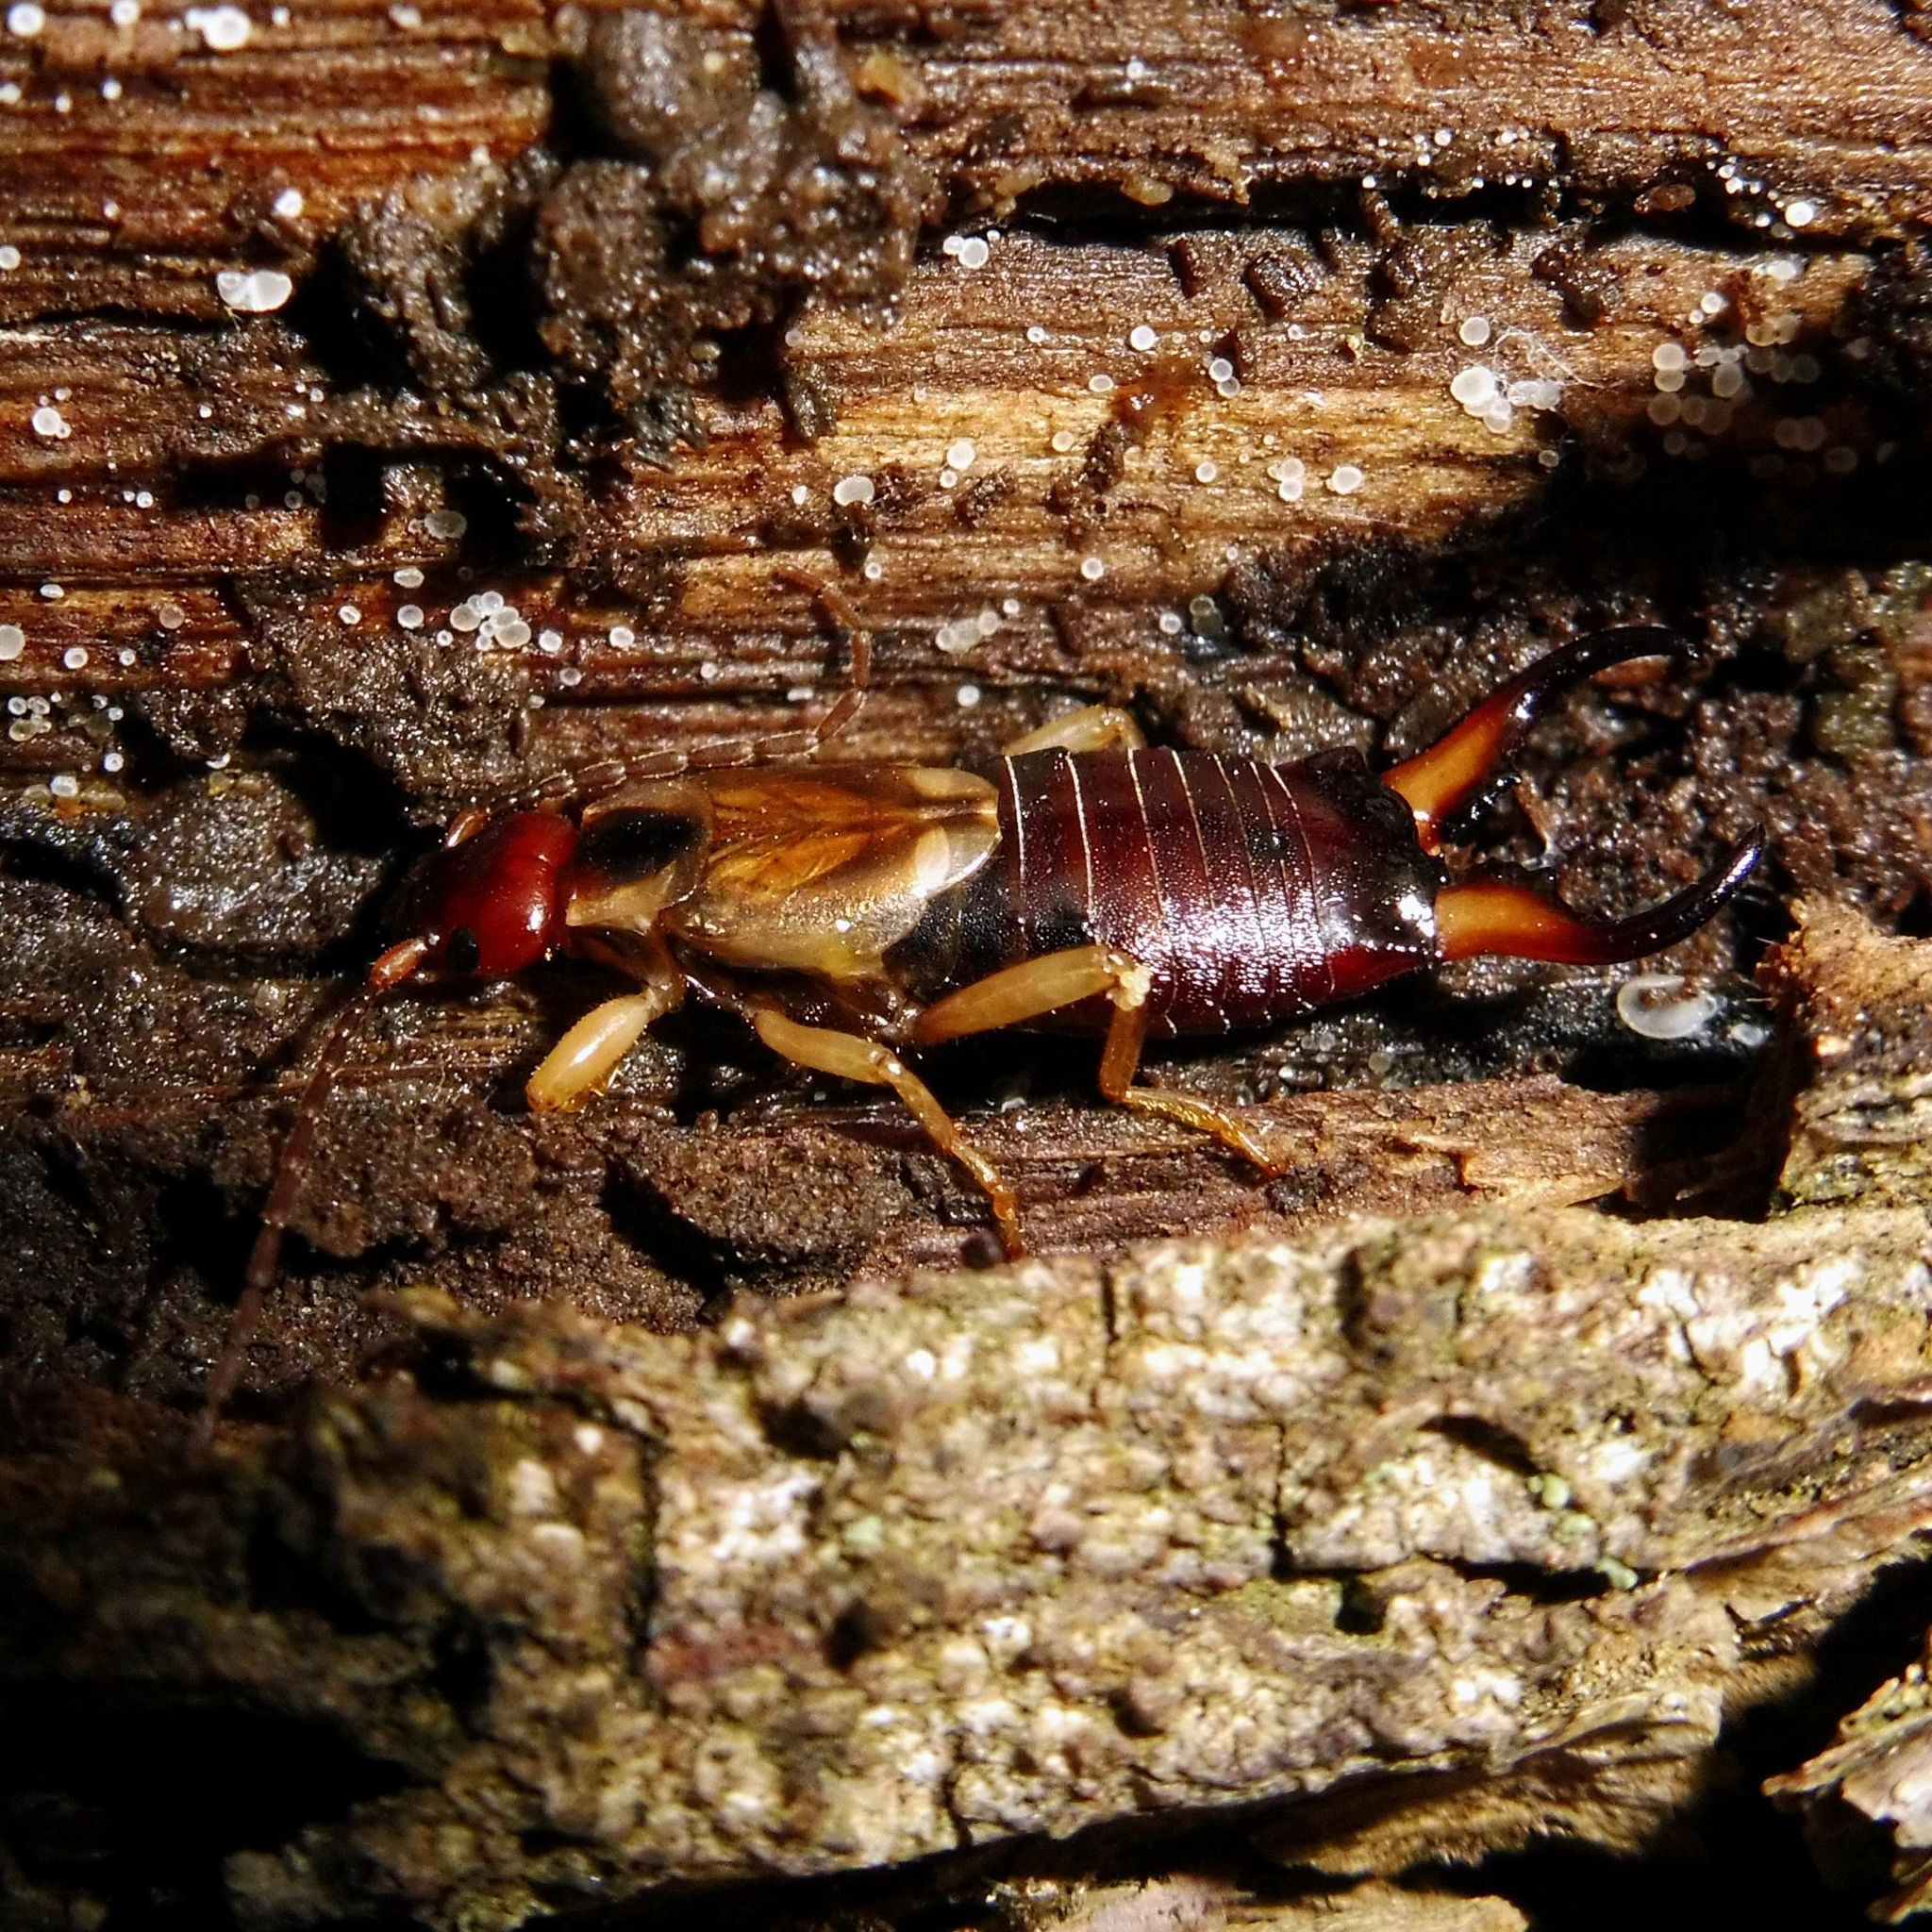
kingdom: Animalia
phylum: Arthropoda
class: Insecta
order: Dermaptera
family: Forficulidae
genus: Forficula
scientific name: Forficula
